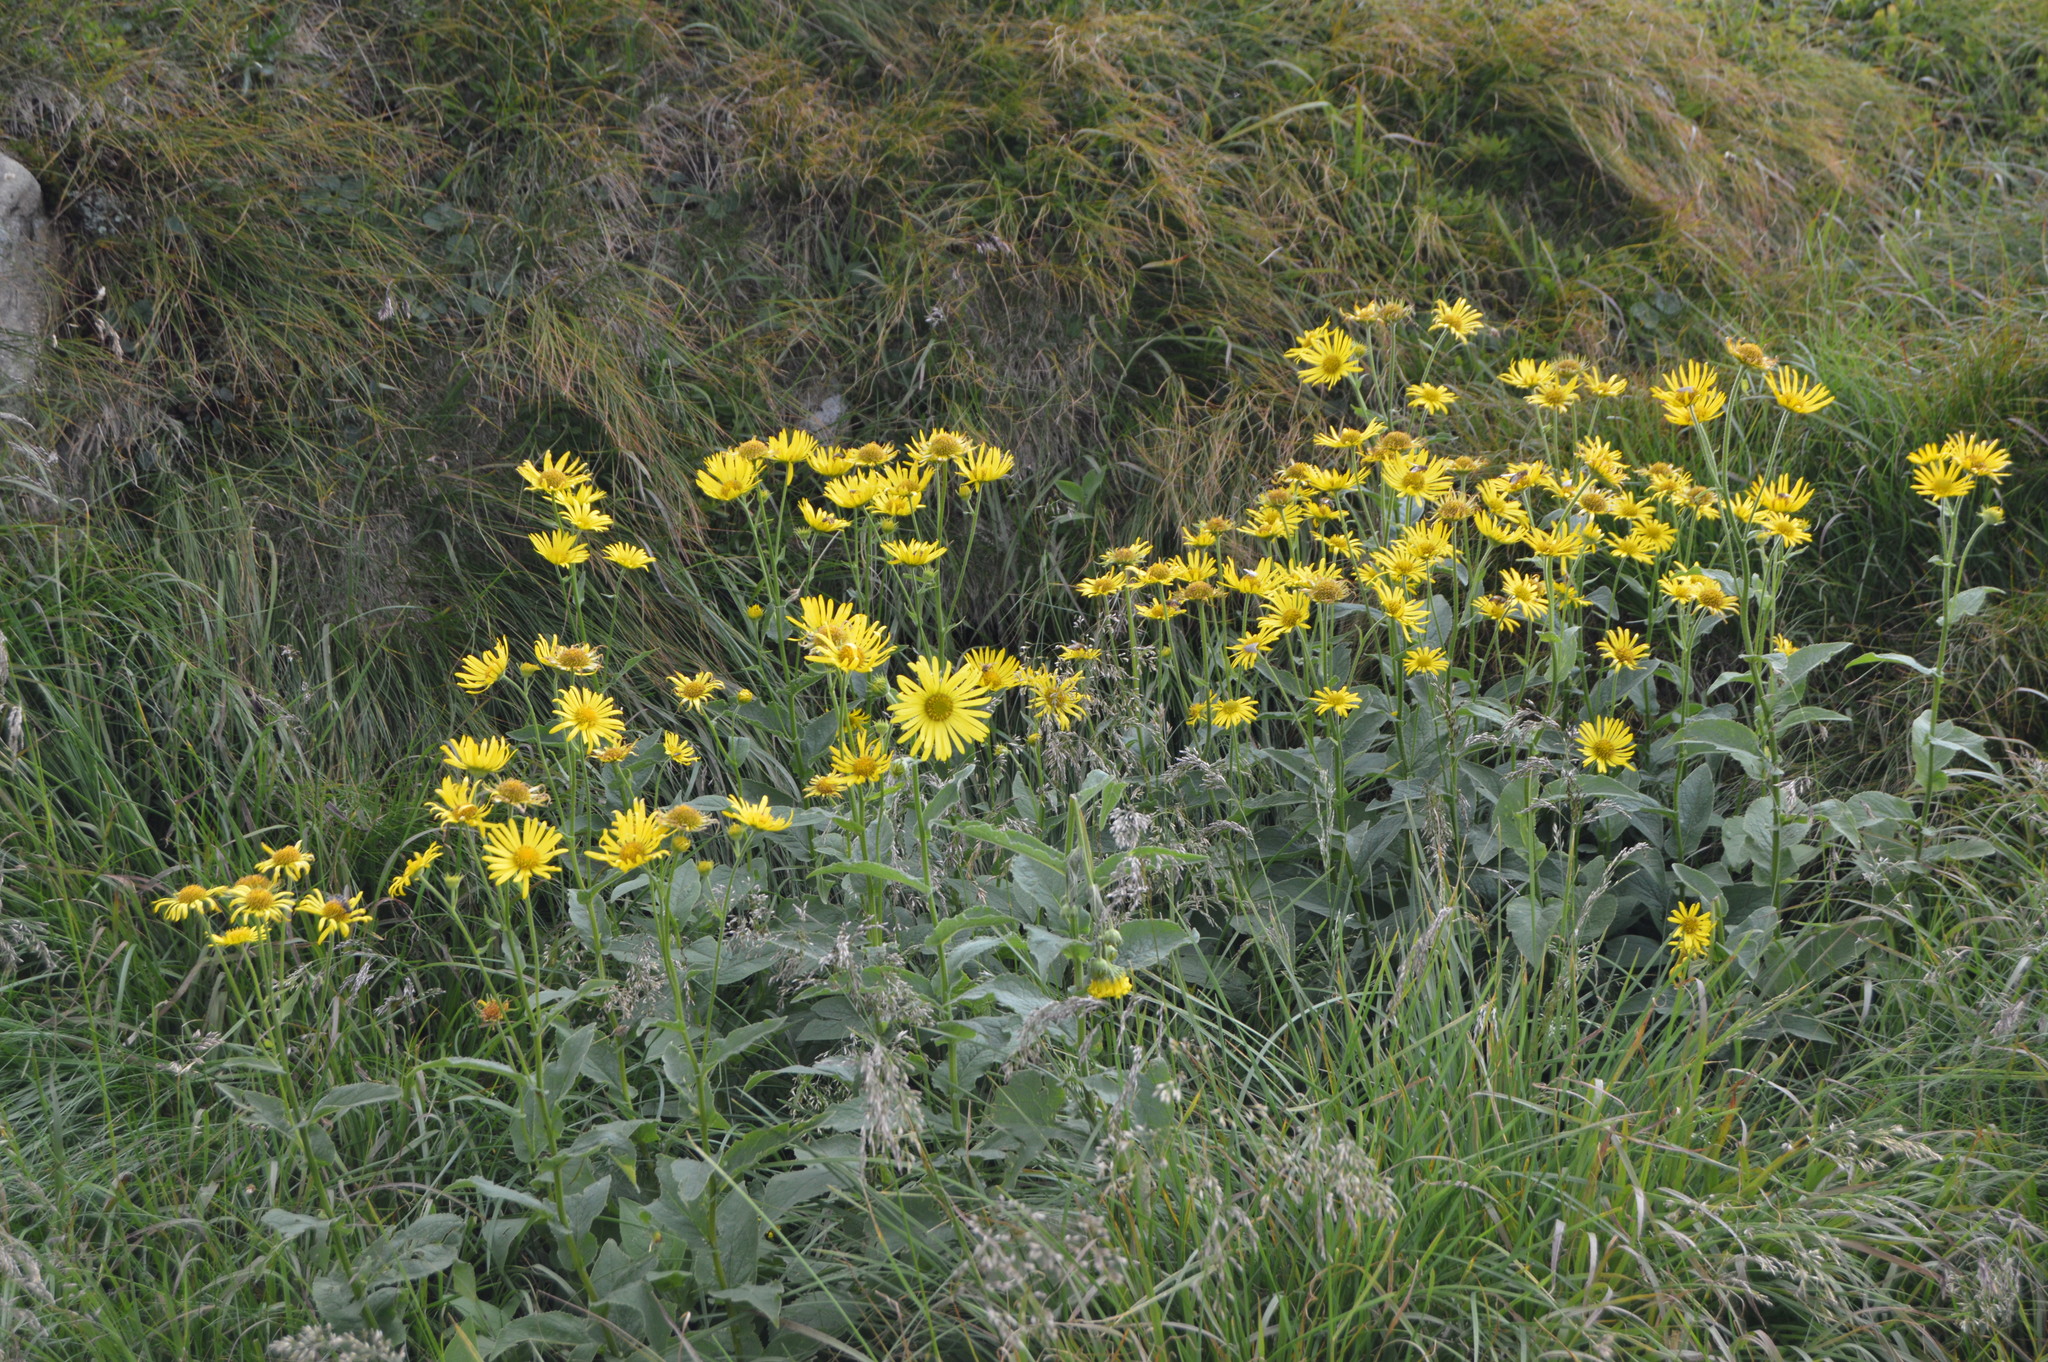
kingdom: Plantae
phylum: Tracheophyta
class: Magnoliopsida
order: Asterales
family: Asteraceae
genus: Doronicum
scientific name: Doronicum austriacum
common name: Austrian leopard's-bane
